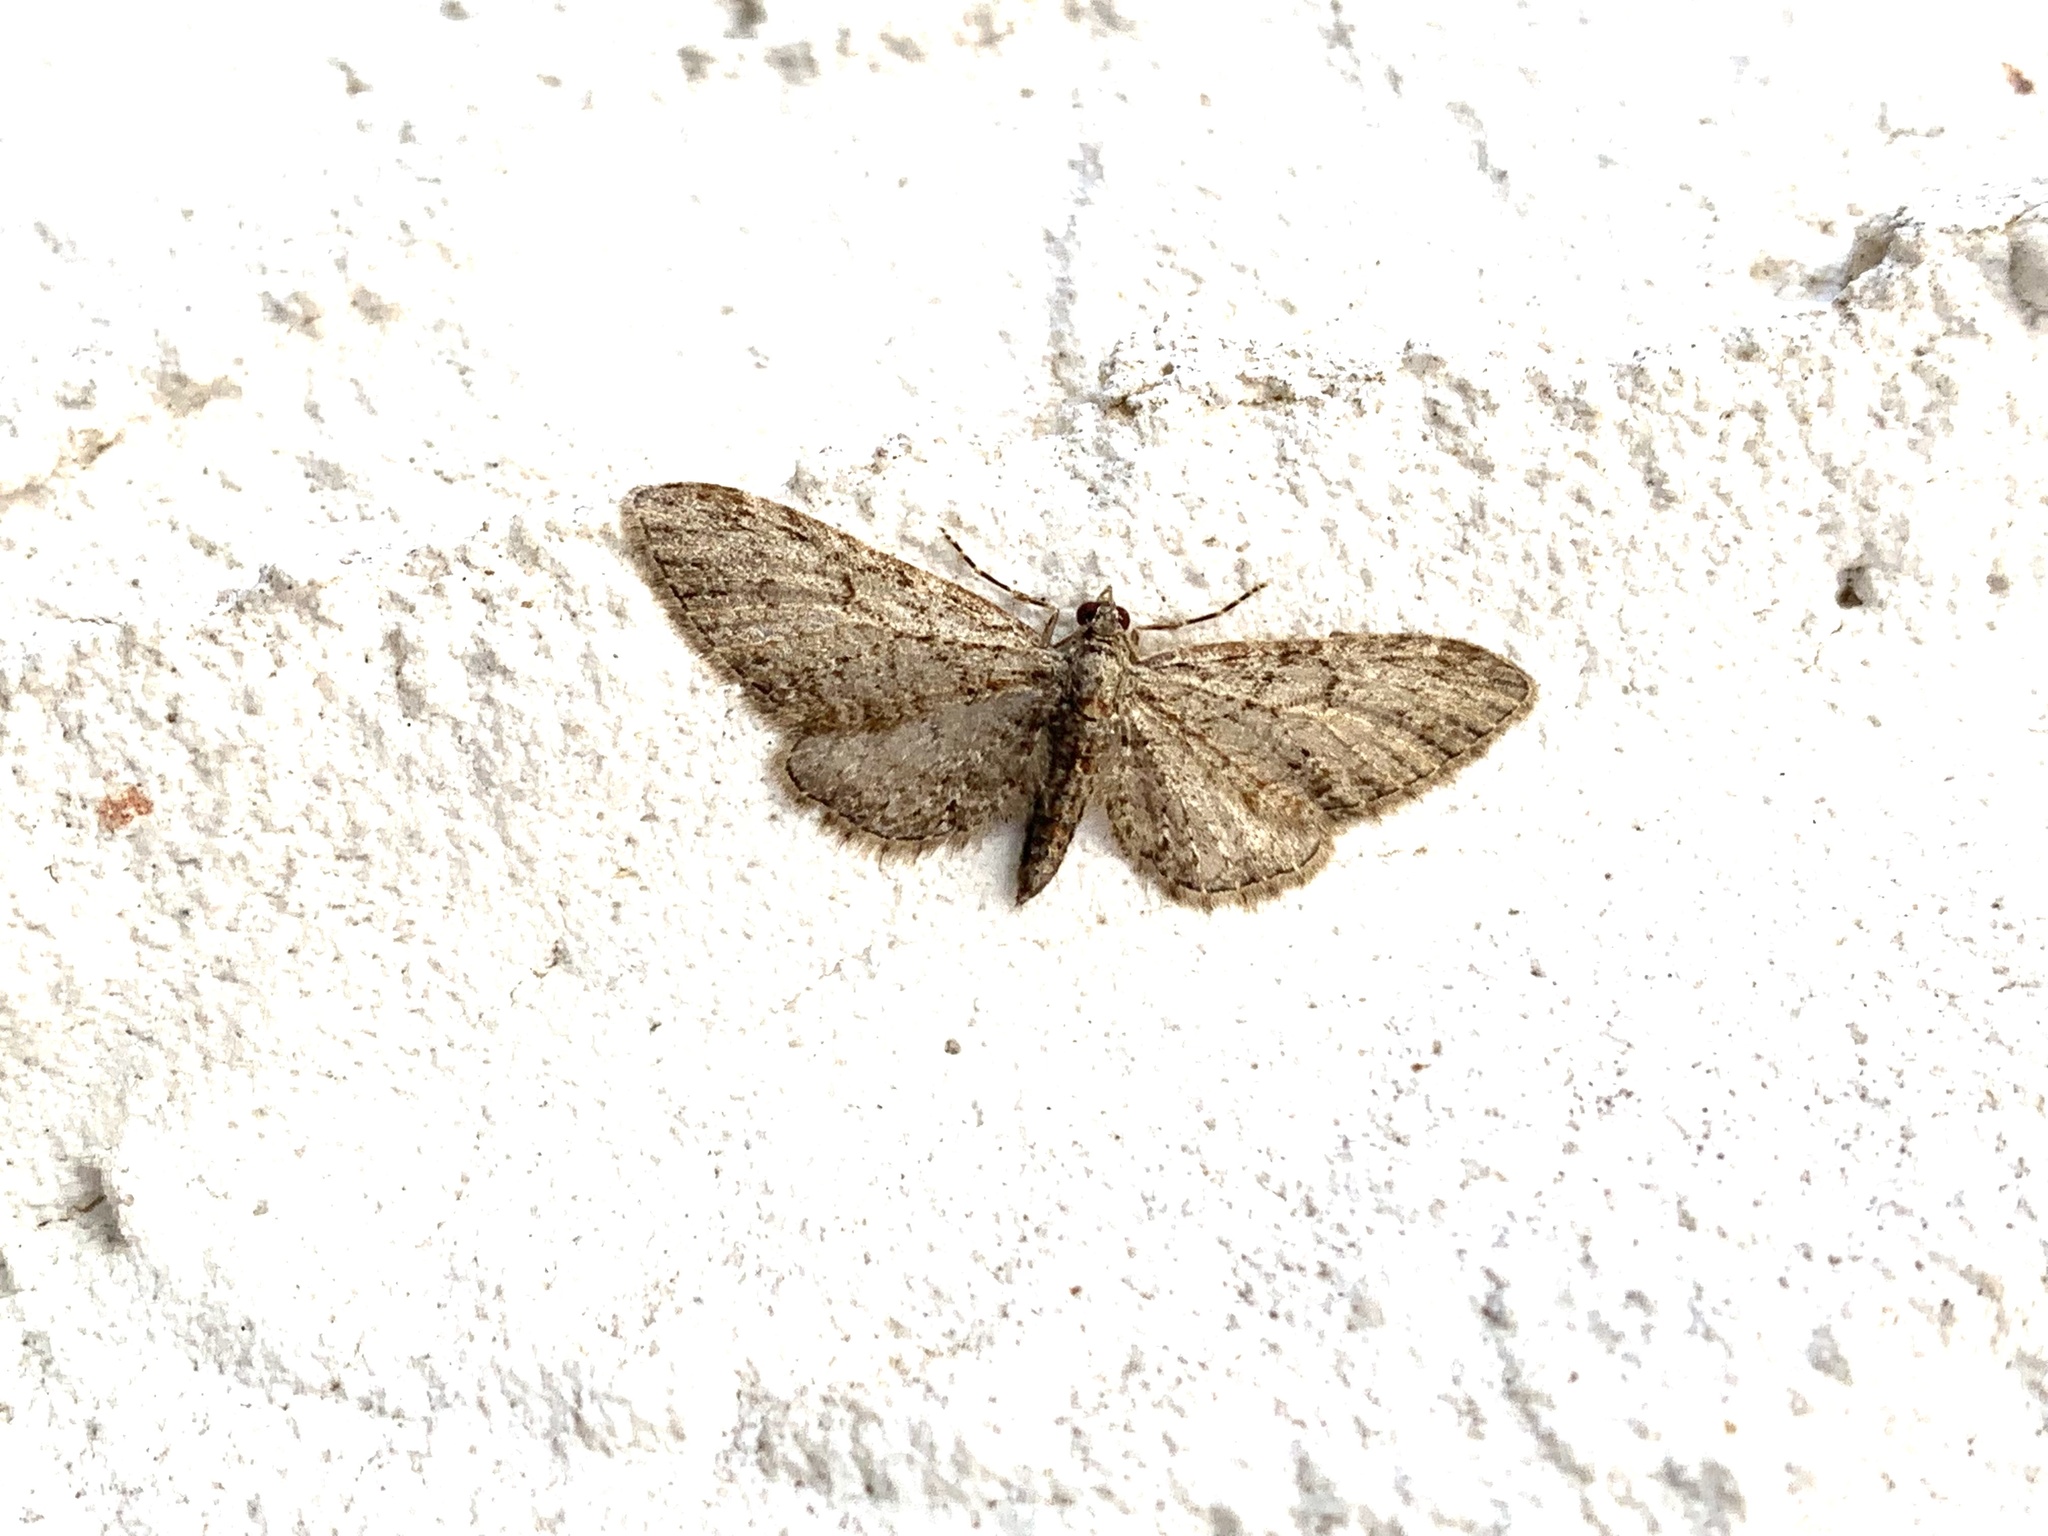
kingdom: Animalia
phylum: Arthropoda
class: Insecta
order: Lepidoptera
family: Geometridae
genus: Eupithecia
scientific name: Eupithecia dodoneata
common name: Oak-tree pug
